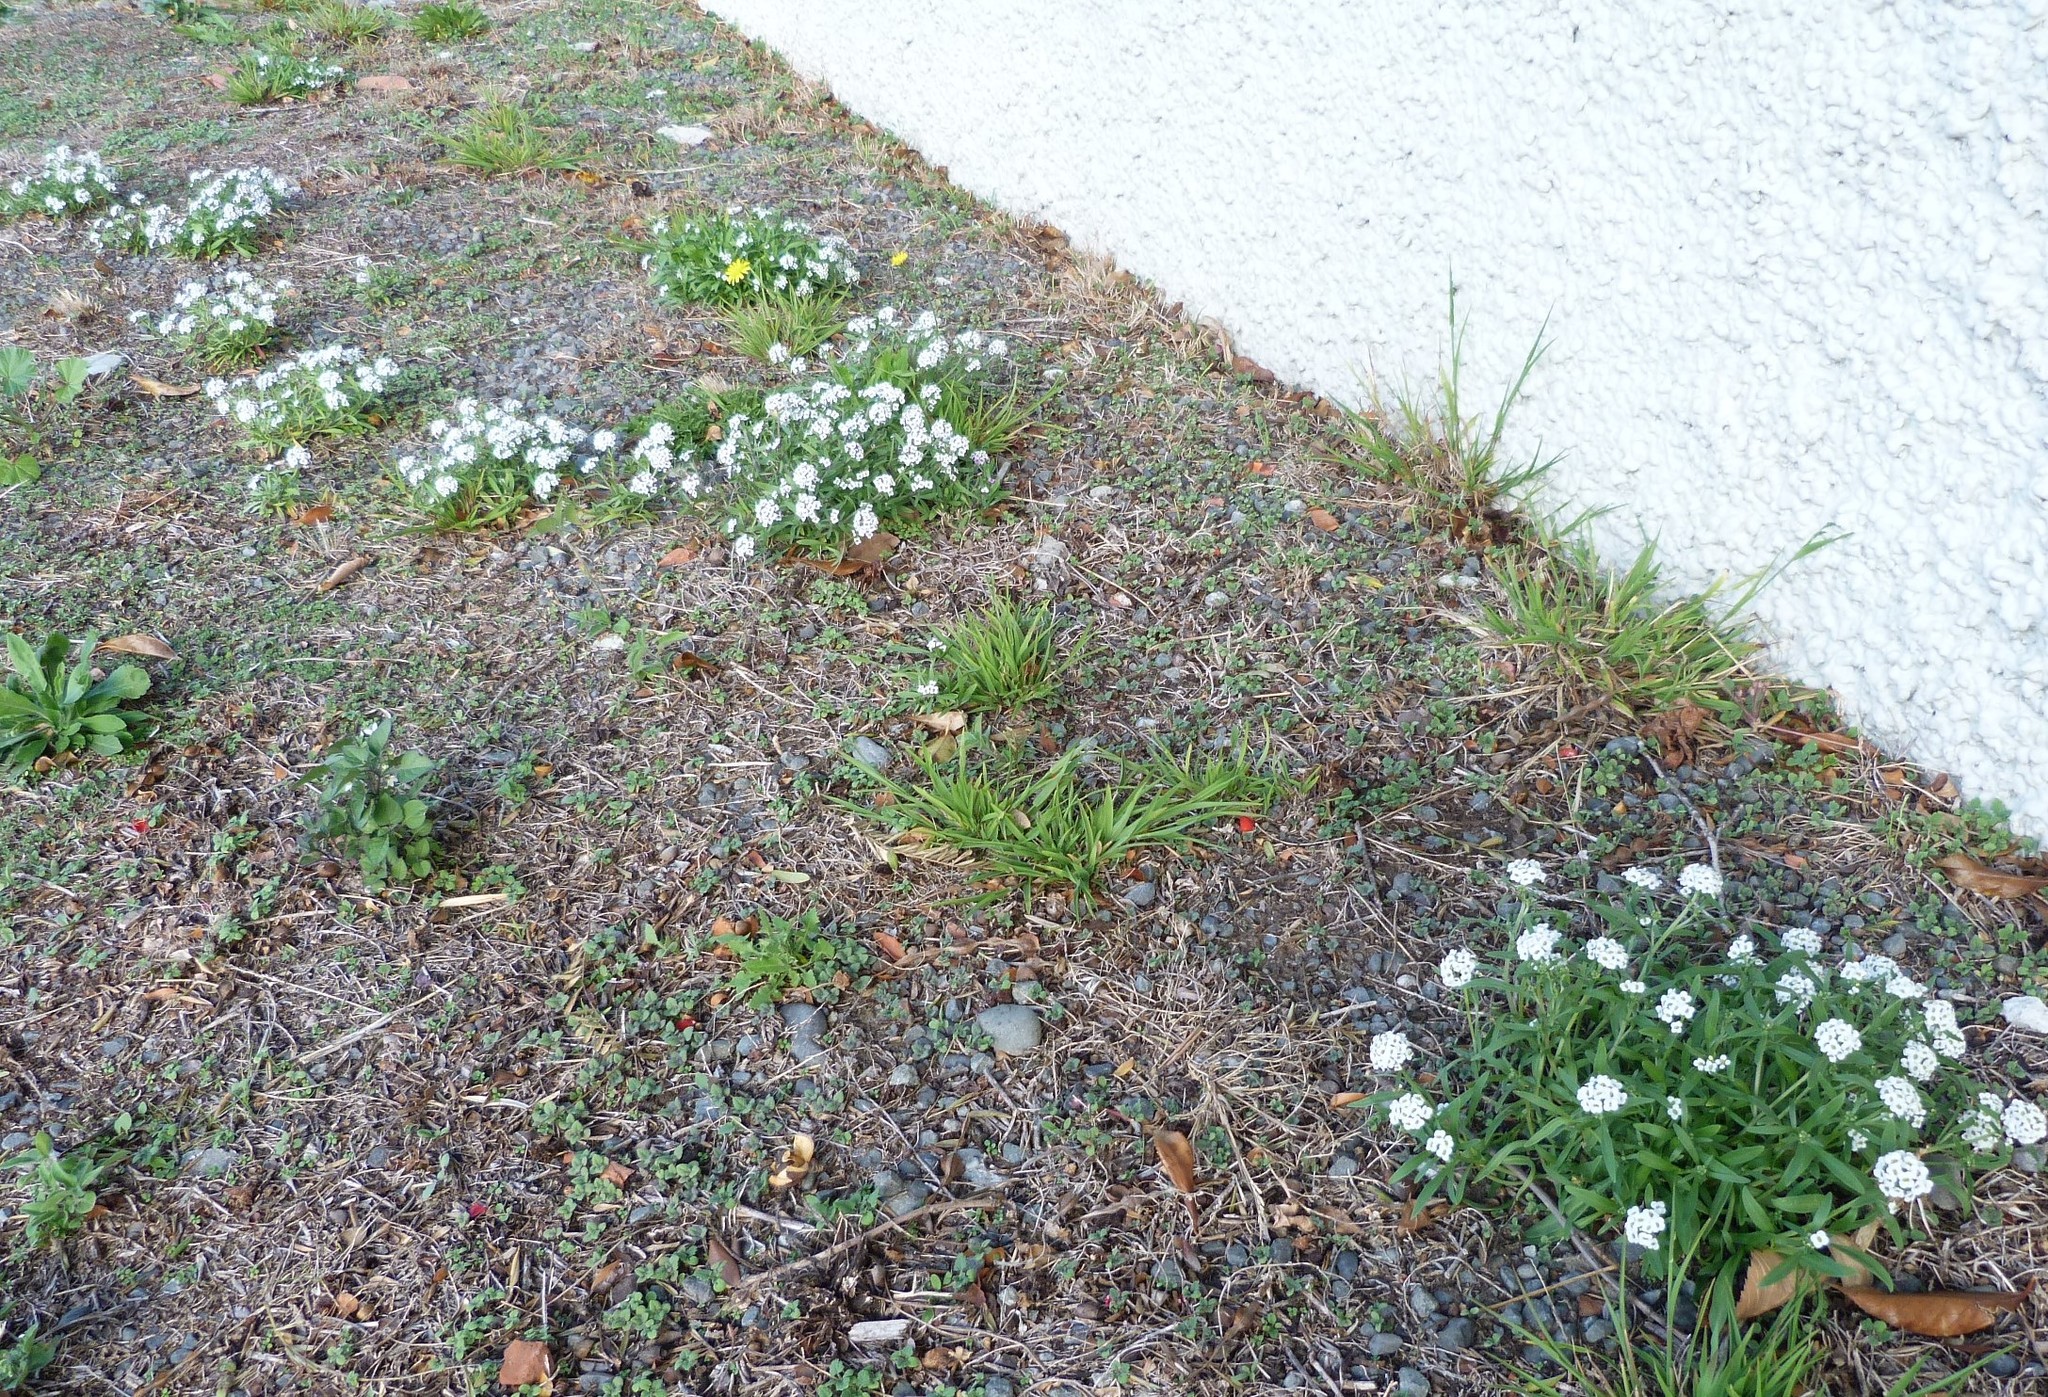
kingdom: Plantae
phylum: Tracheophyta
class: Magnoliopsida
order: Brassicales
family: Brassicaceae
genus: Lobularia
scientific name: Lobularia maritima
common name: Sweet alison
